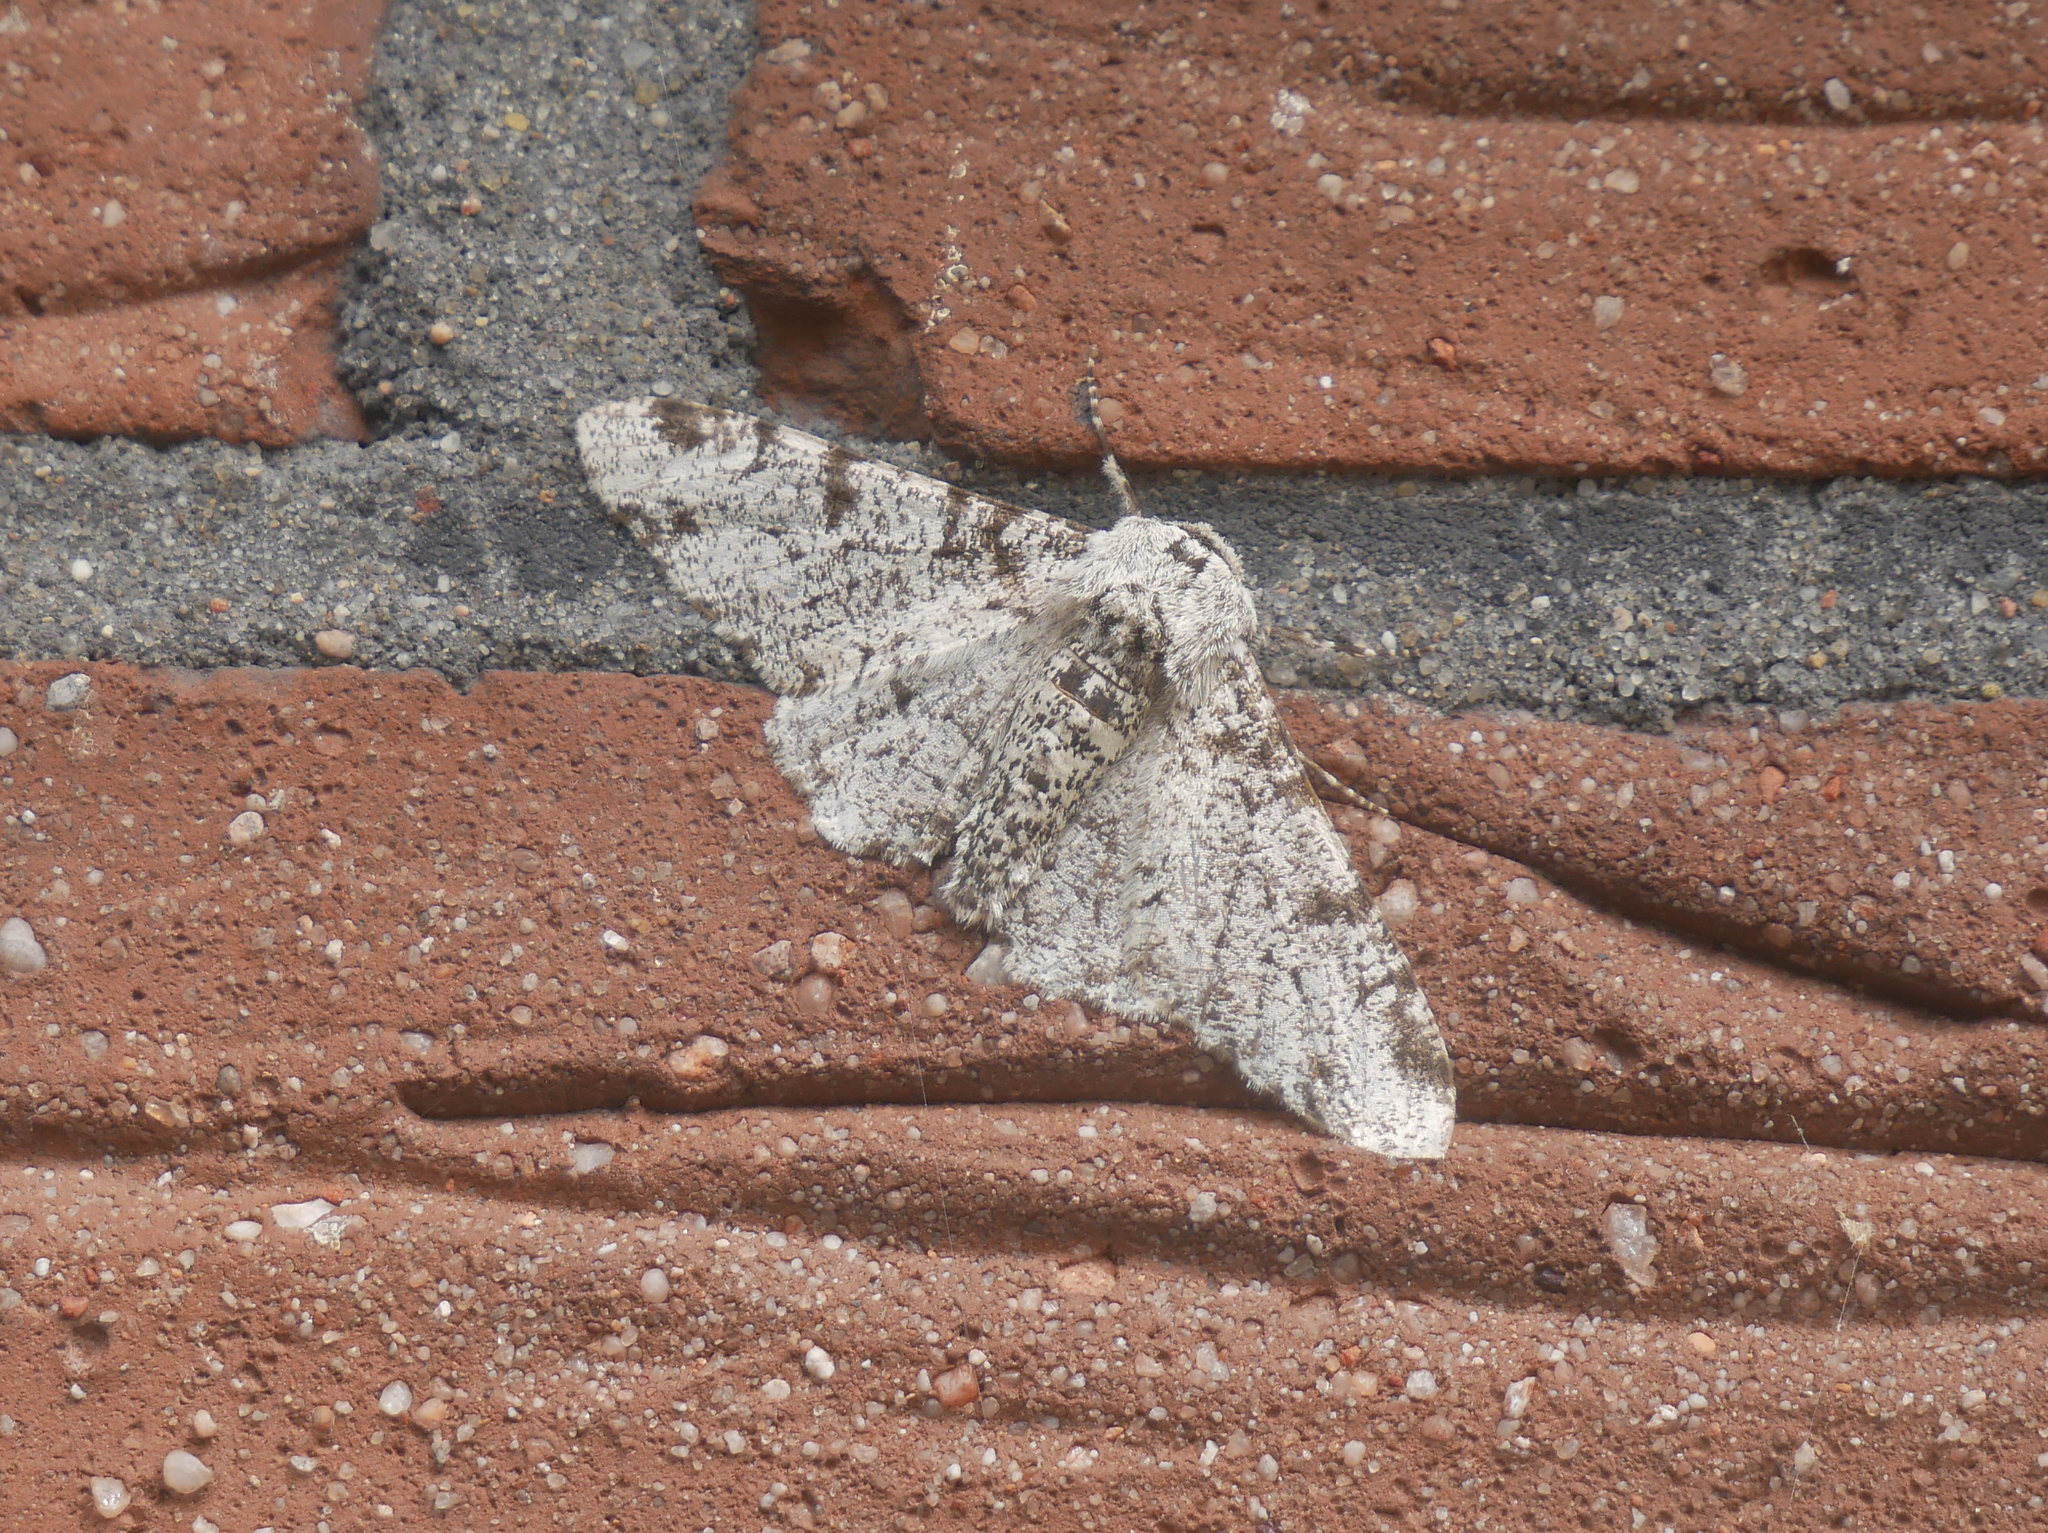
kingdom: Animalia
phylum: Arthropoda
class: Insecta
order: Lepidoptera
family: Geometridae
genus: Biston
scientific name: Biston betularia
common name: Peppered moth
